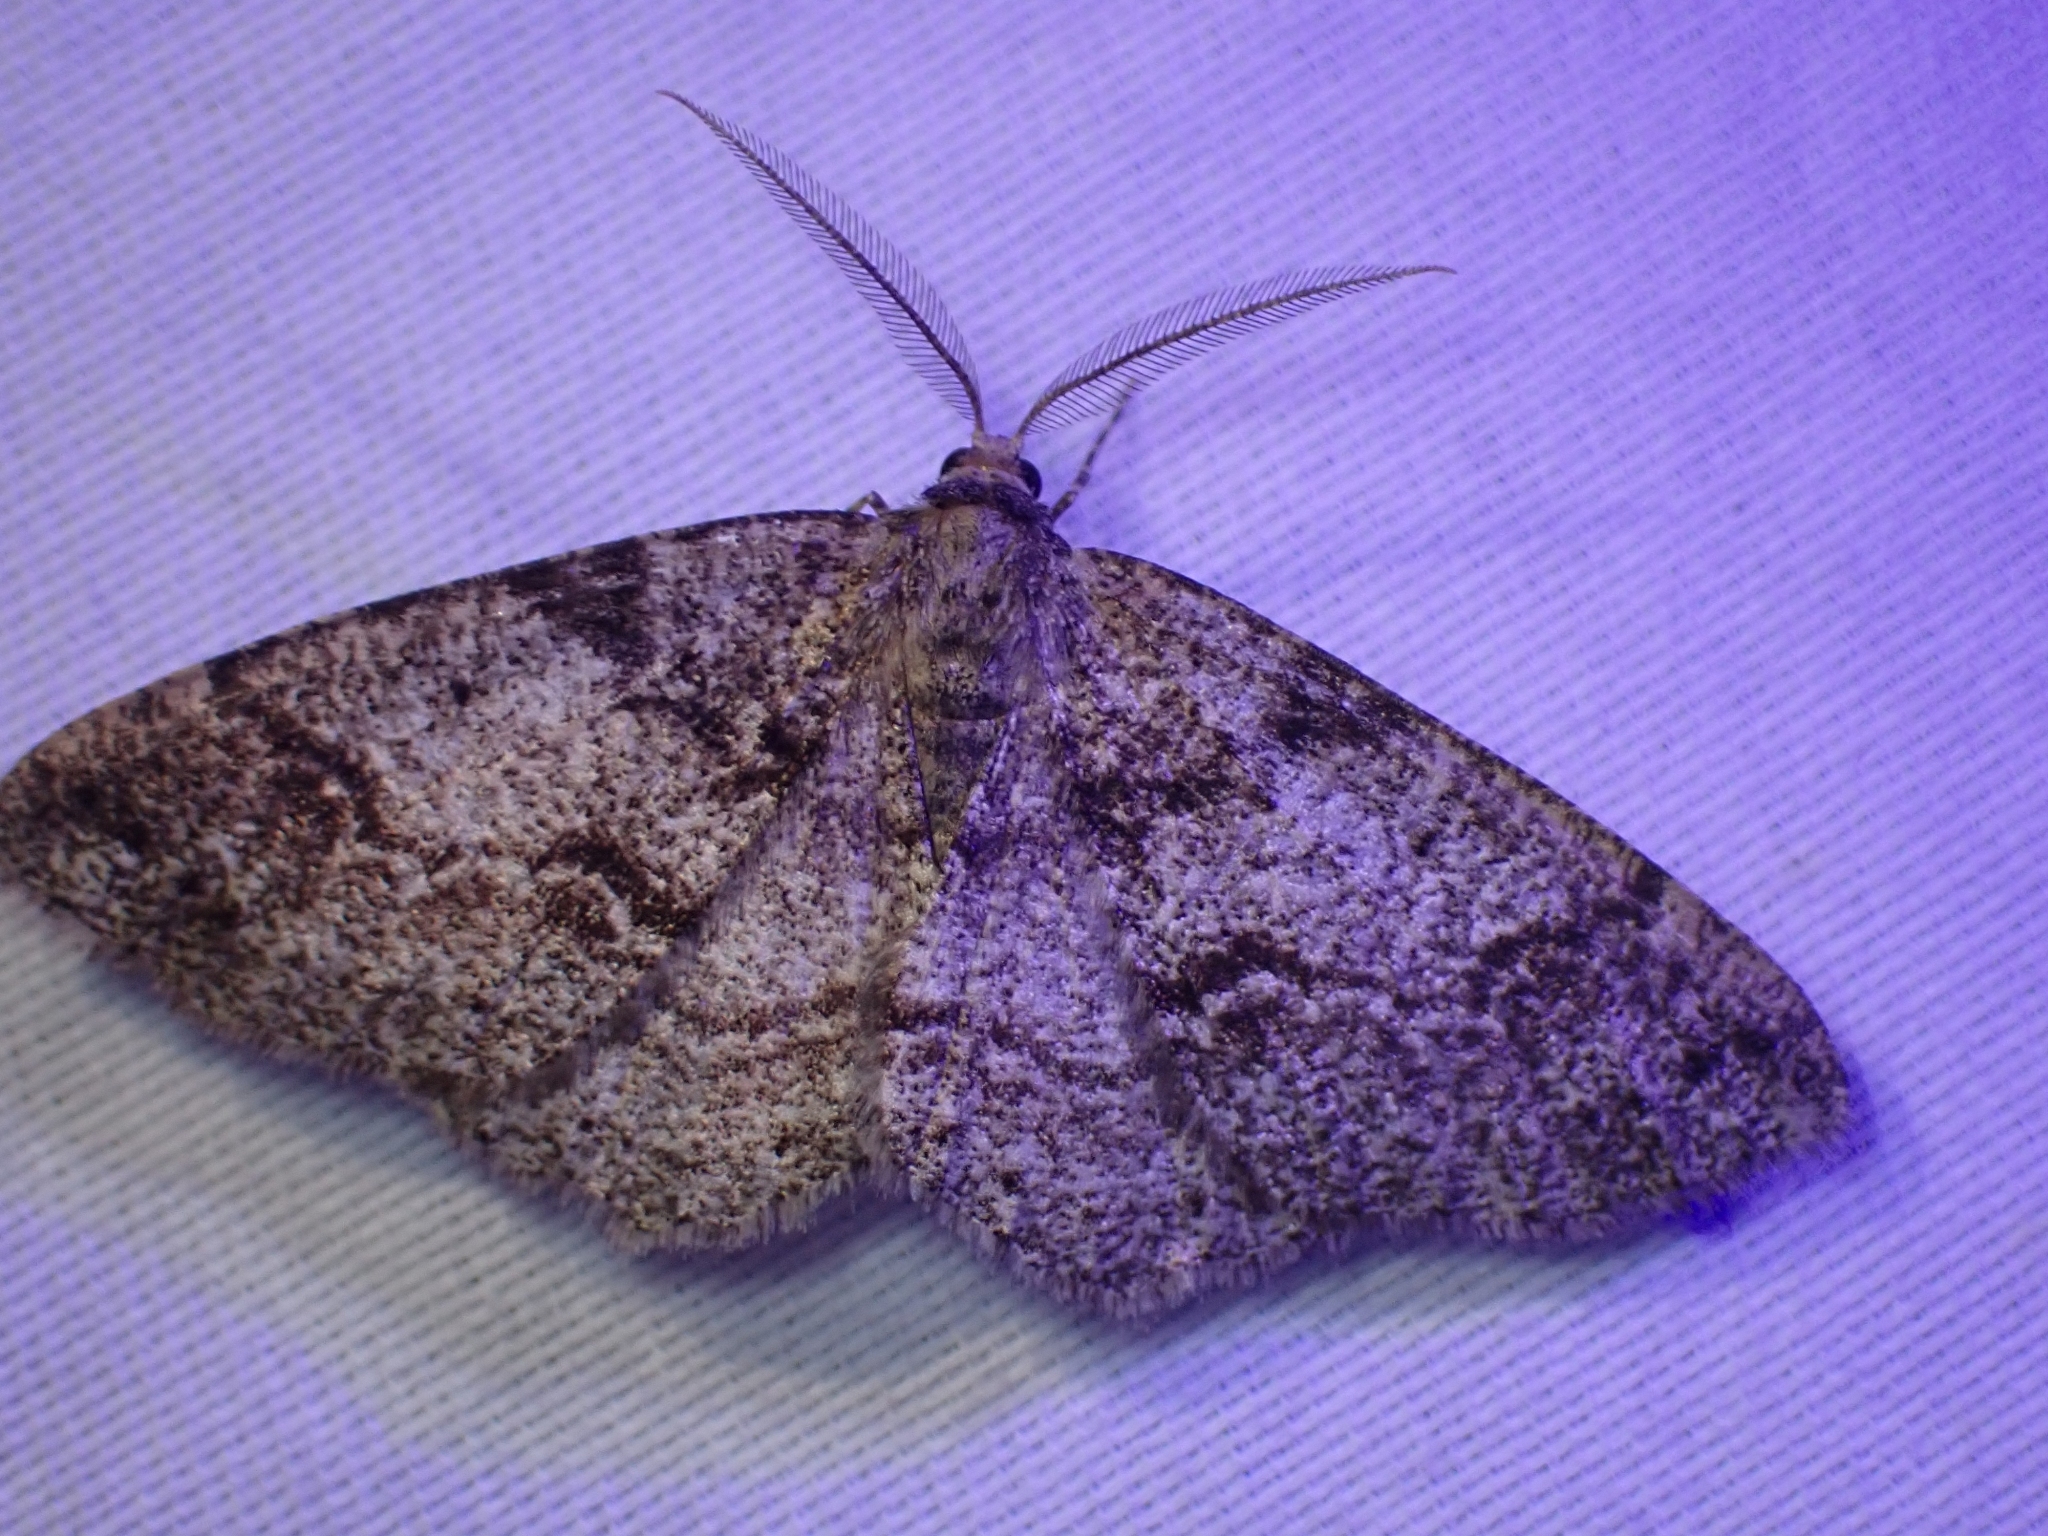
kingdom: Animalia
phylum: Arthropoda
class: Insecta
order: Lepidoptera
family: Geometridae
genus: Melanolophia
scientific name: Melanolophia imitata
